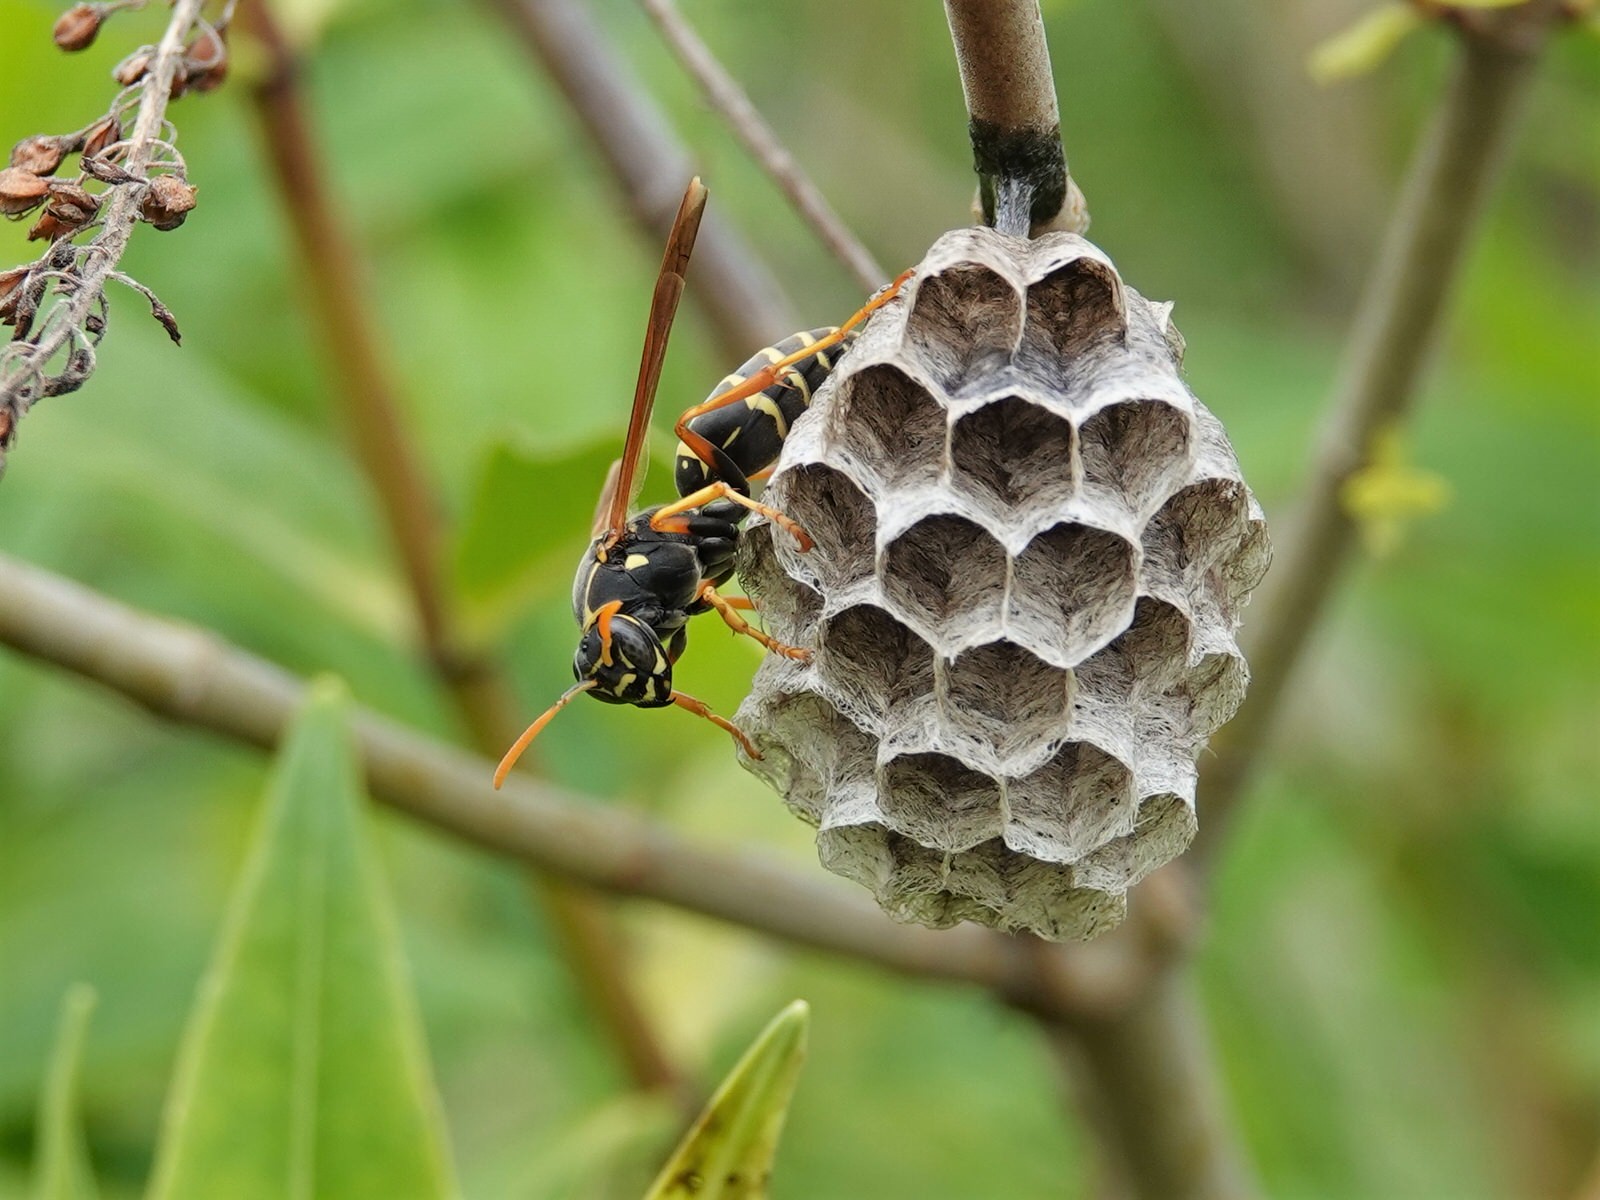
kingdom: Animalia
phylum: Arthropoda
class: Insecta
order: Hymenoptera
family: Eumenidae
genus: Polistes
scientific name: Polistes chinensis
